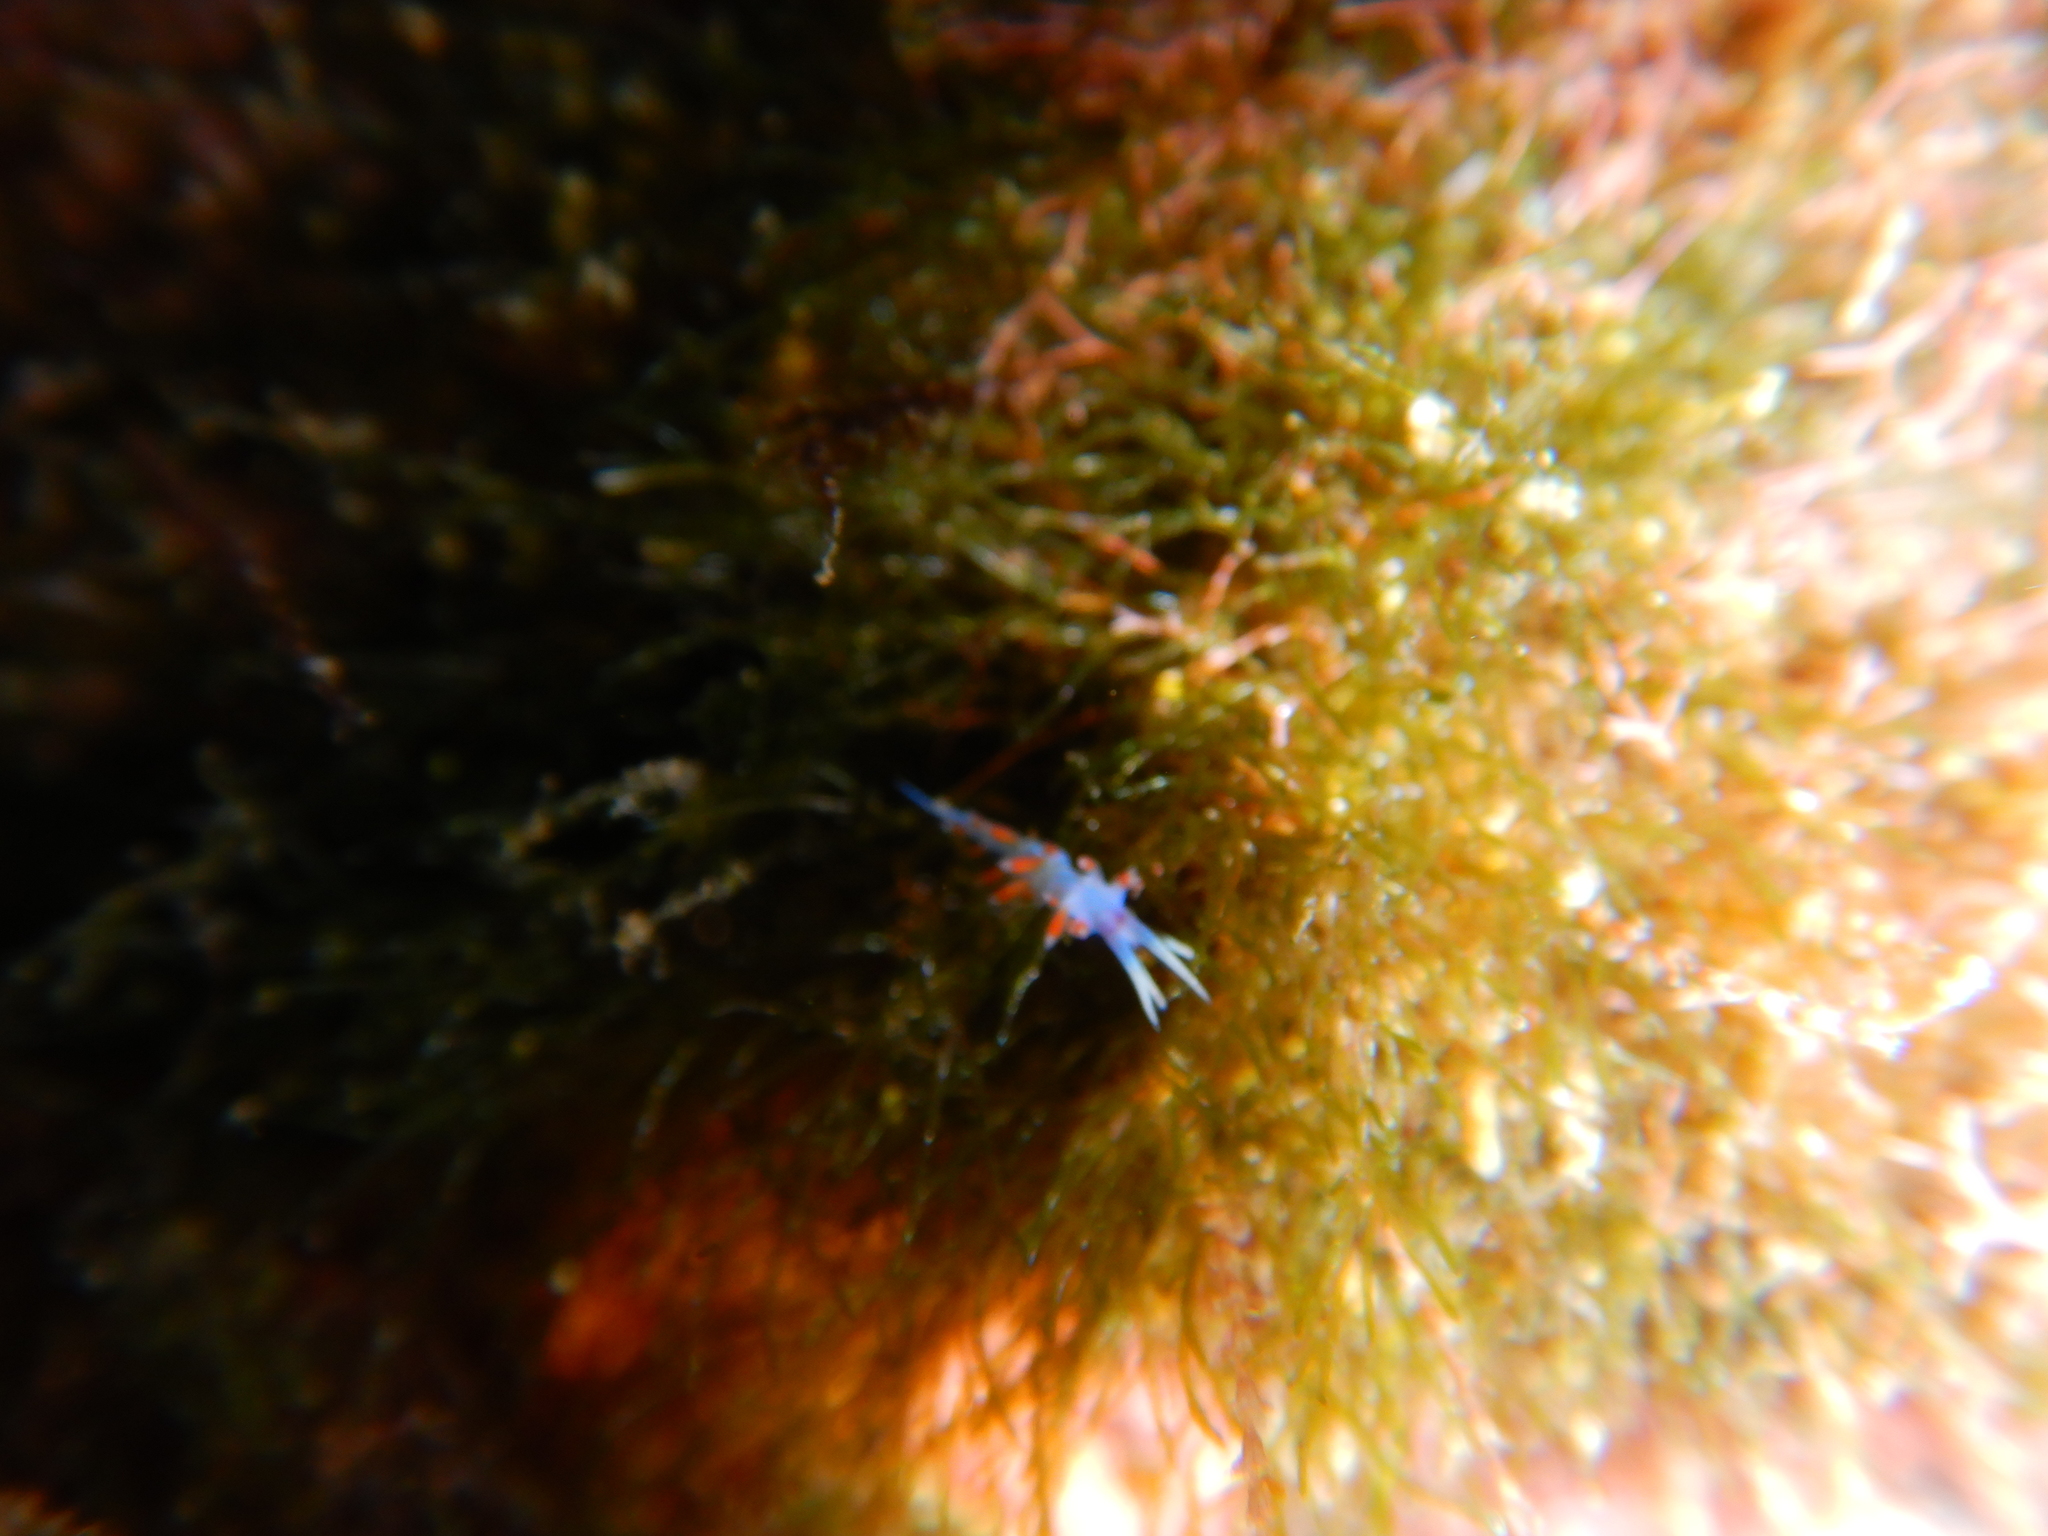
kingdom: Animalia
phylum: Mollusca
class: Gastropoda
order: Nudibranchia
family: Flabellinidae
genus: Calmella
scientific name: Calmella cavolini
